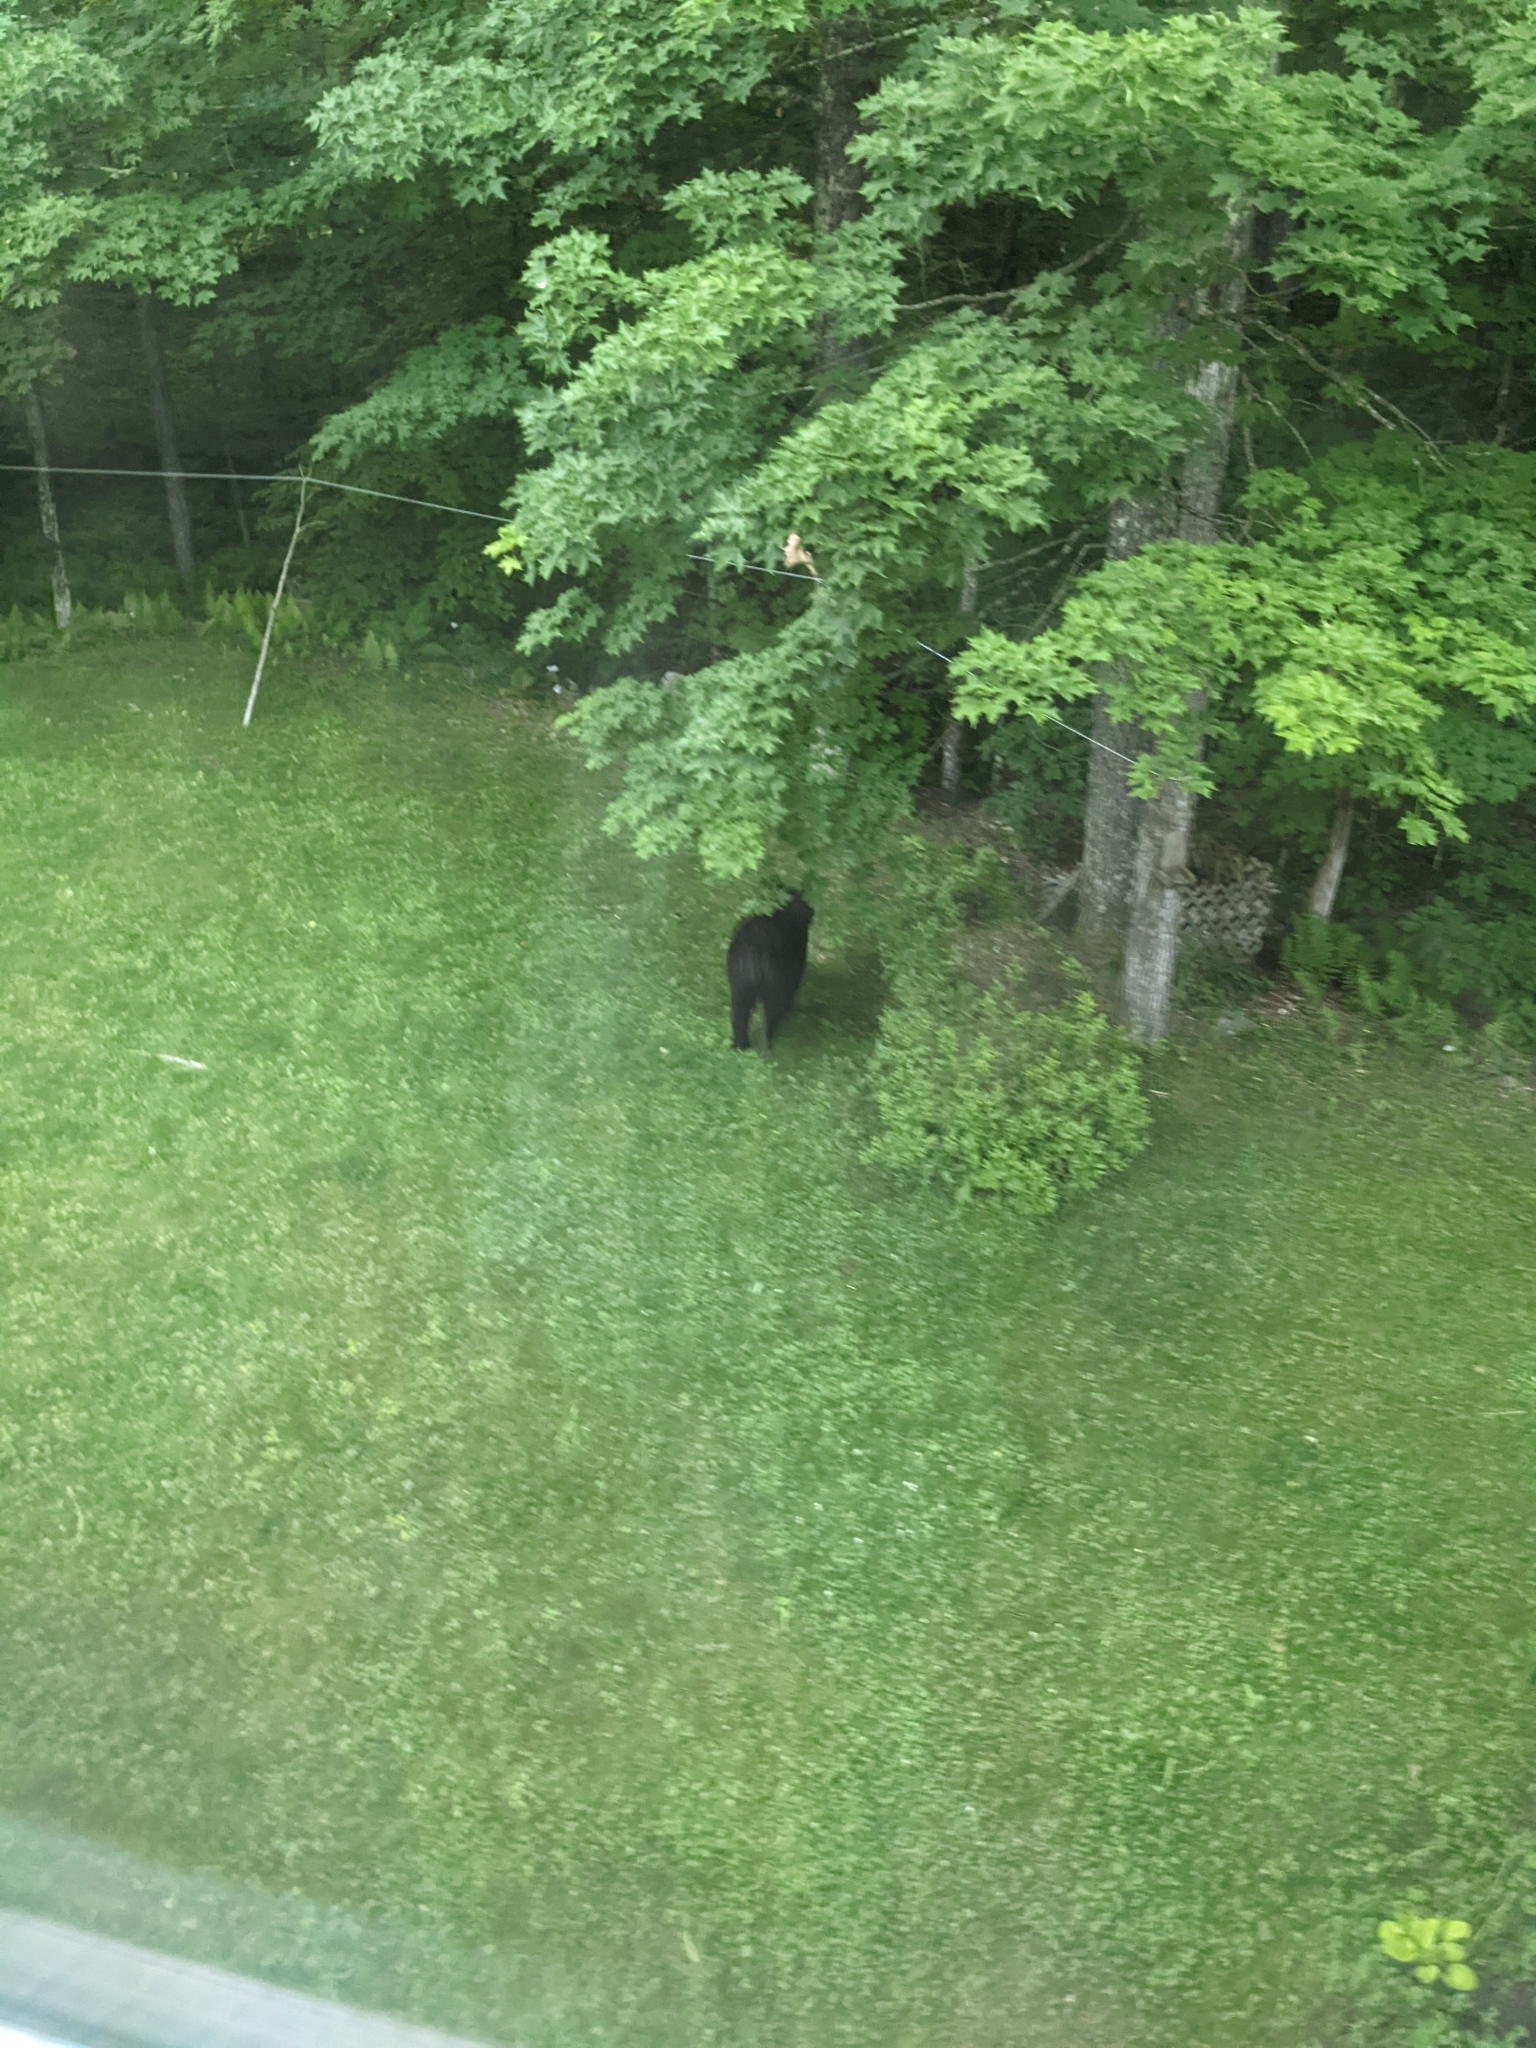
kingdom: Animalia
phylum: Chordata
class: Mammalia
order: Carnivora
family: Ursidae
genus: Ursus
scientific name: Ursus americanus
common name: American black bear
